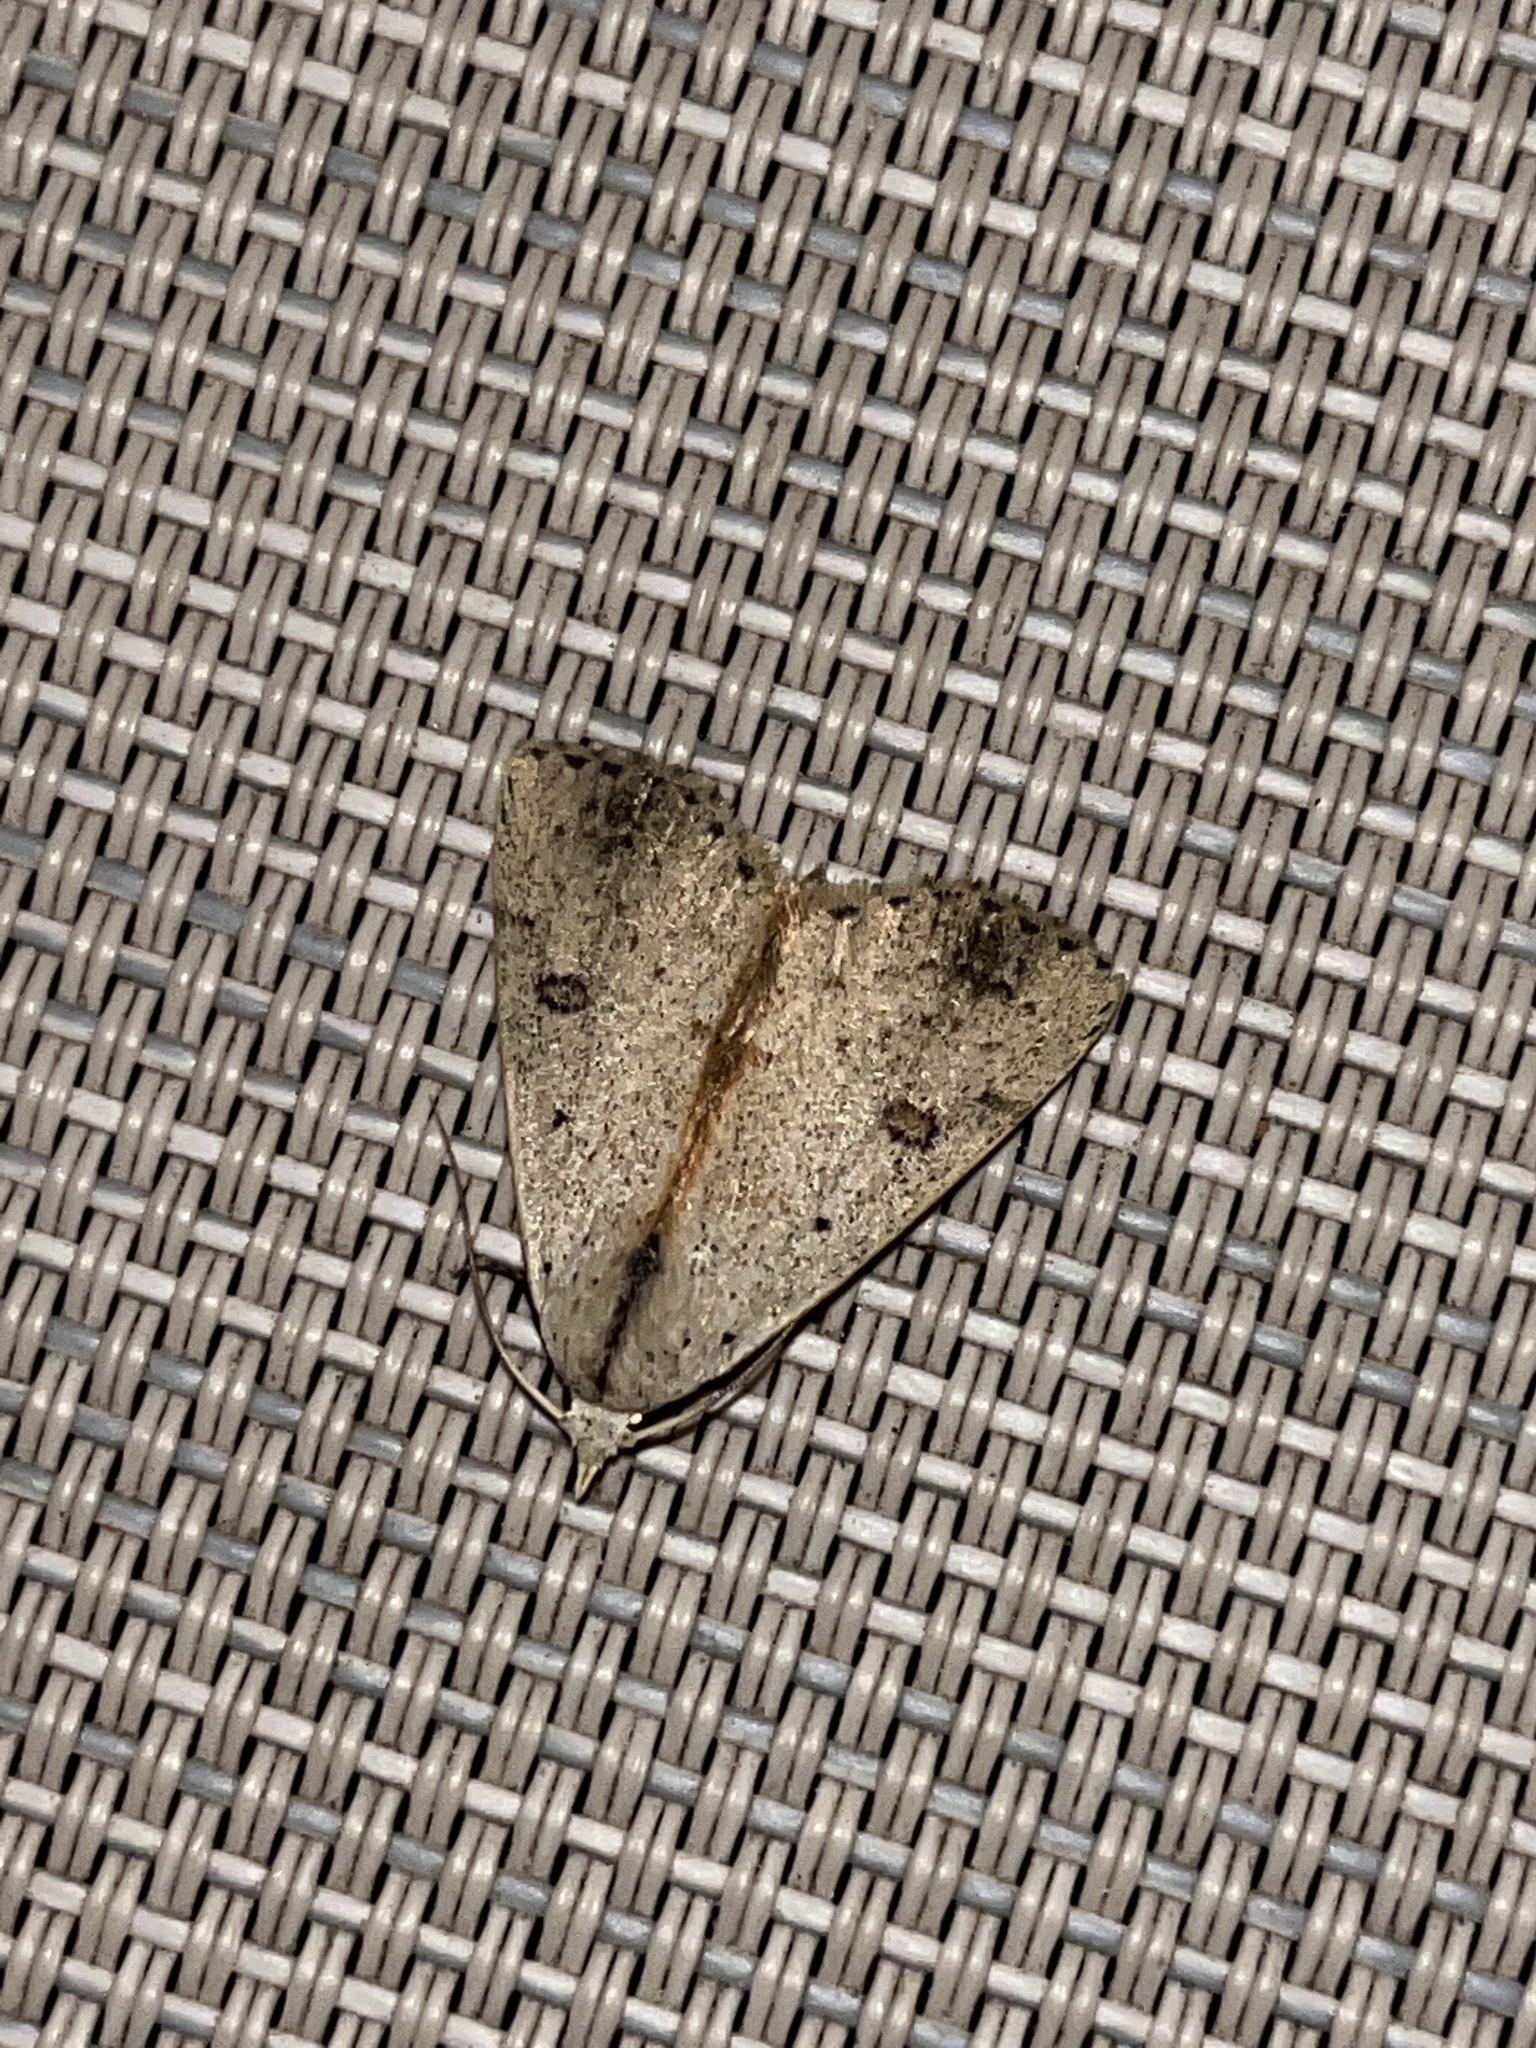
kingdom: Animalia
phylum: Arthropoda
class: Insecta
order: Lepidoptera
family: Erebidae
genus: Scolecocampa
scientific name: Scolecocampa liburna
